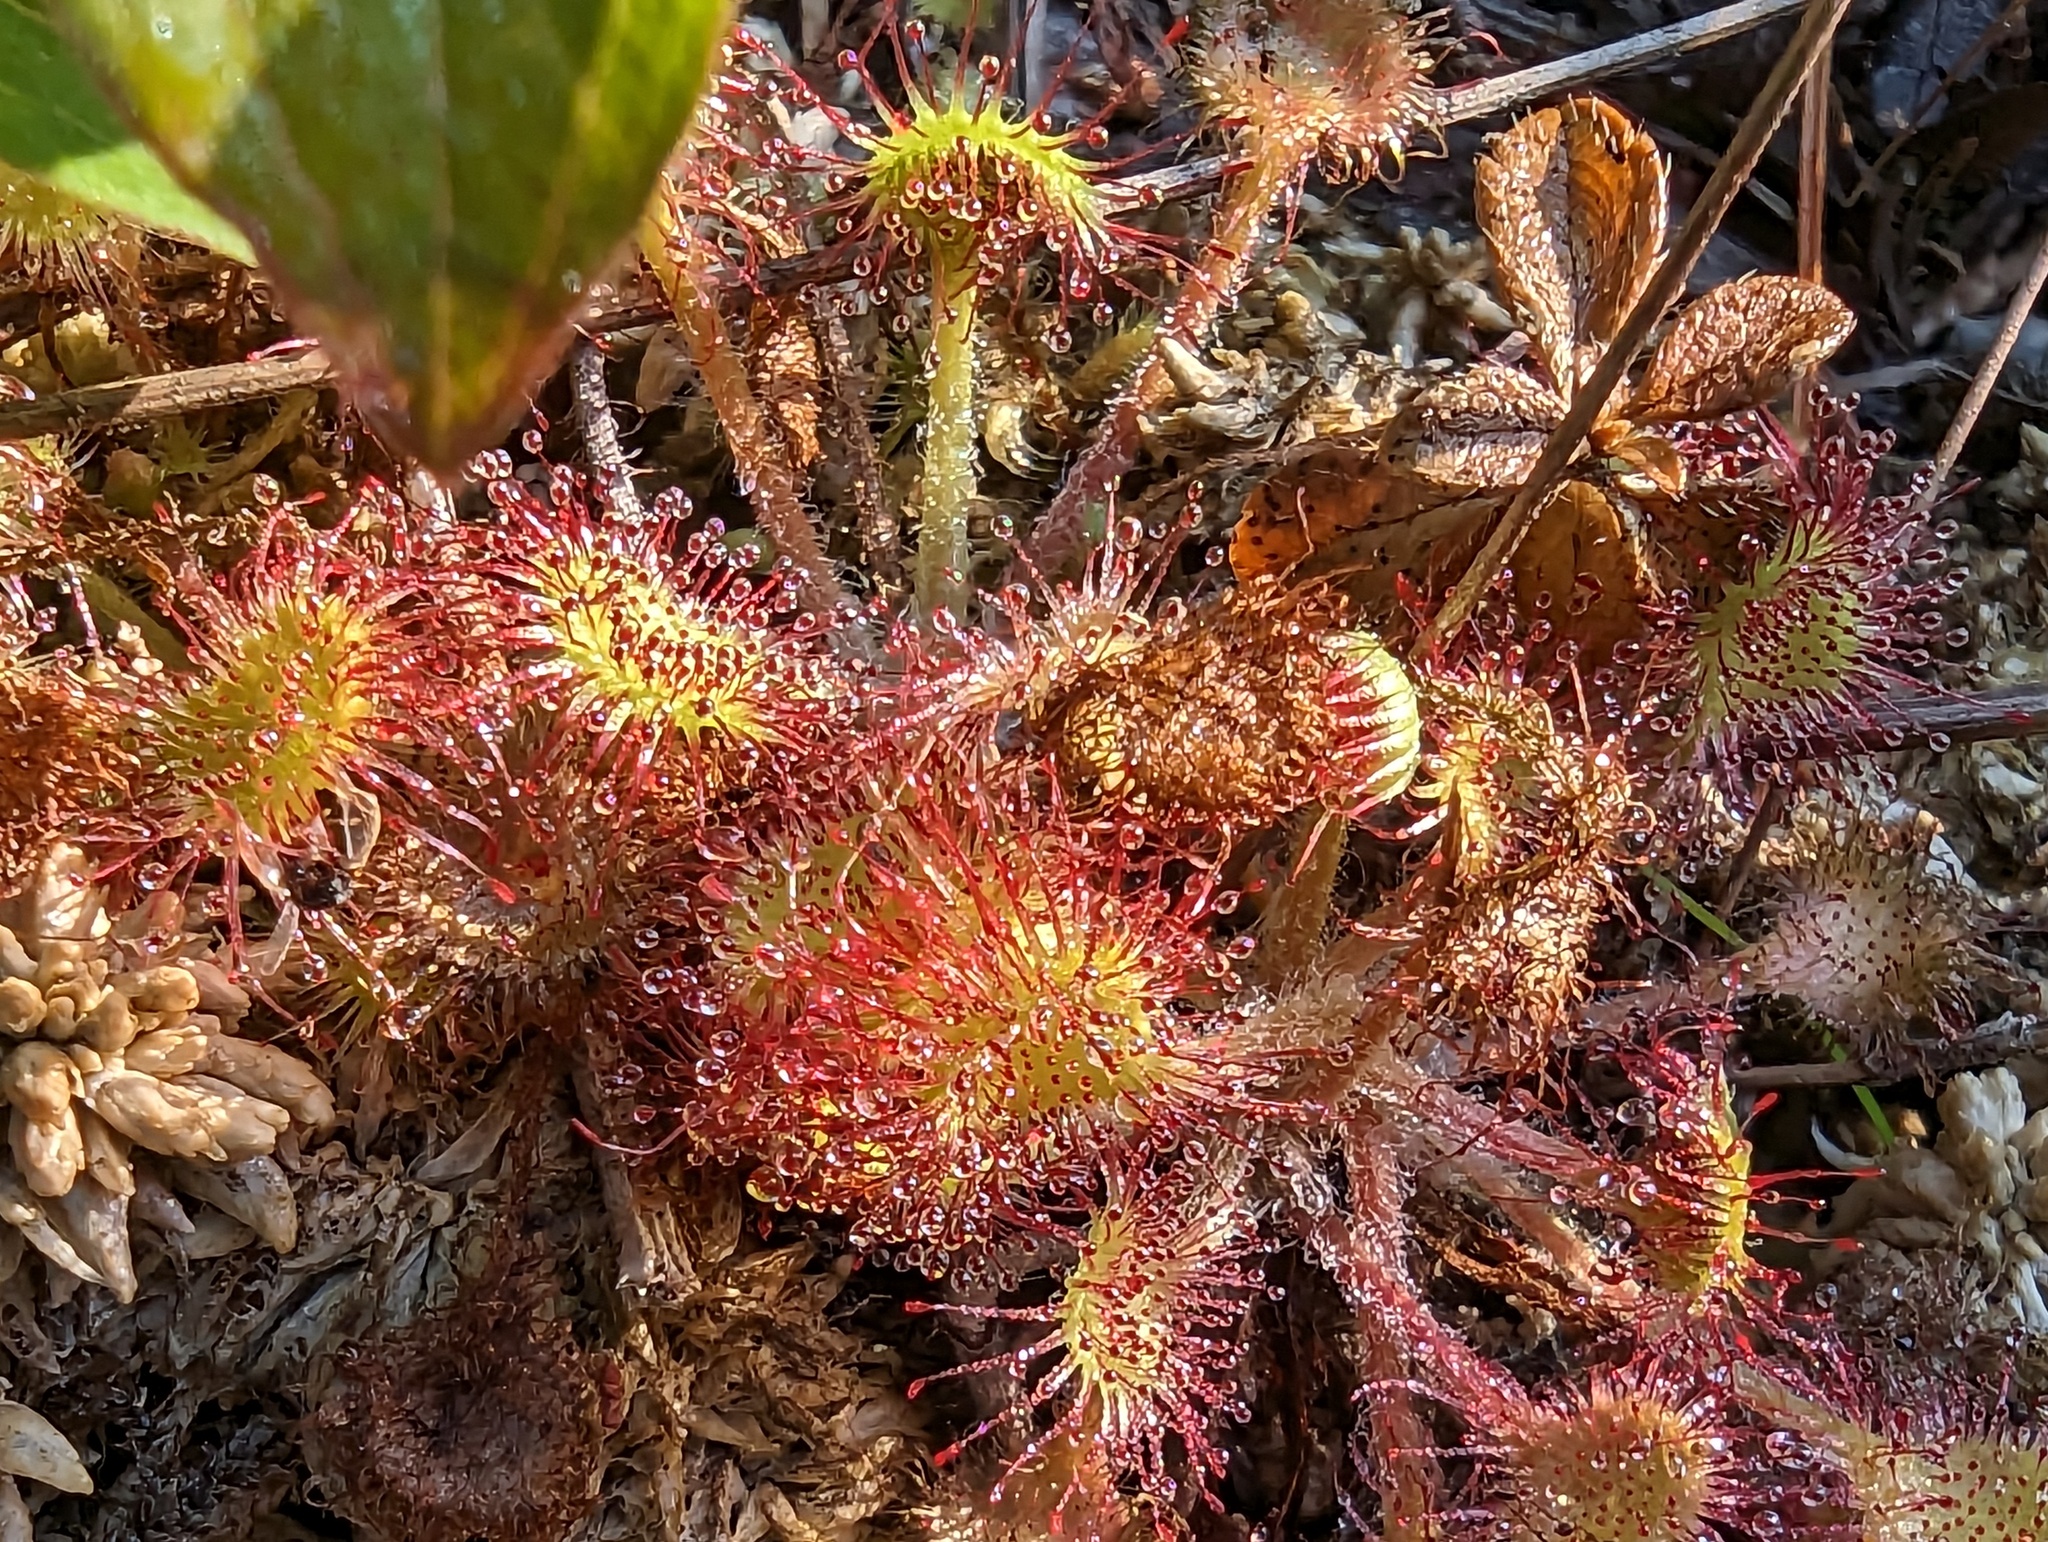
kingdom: Plantae
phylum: Tracheophyta
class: Magnoliopsida
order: Caryophyllales
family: Droseraceae
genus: Drosera
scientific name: Drosera rotundifolia
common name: Round-leaved sundew
